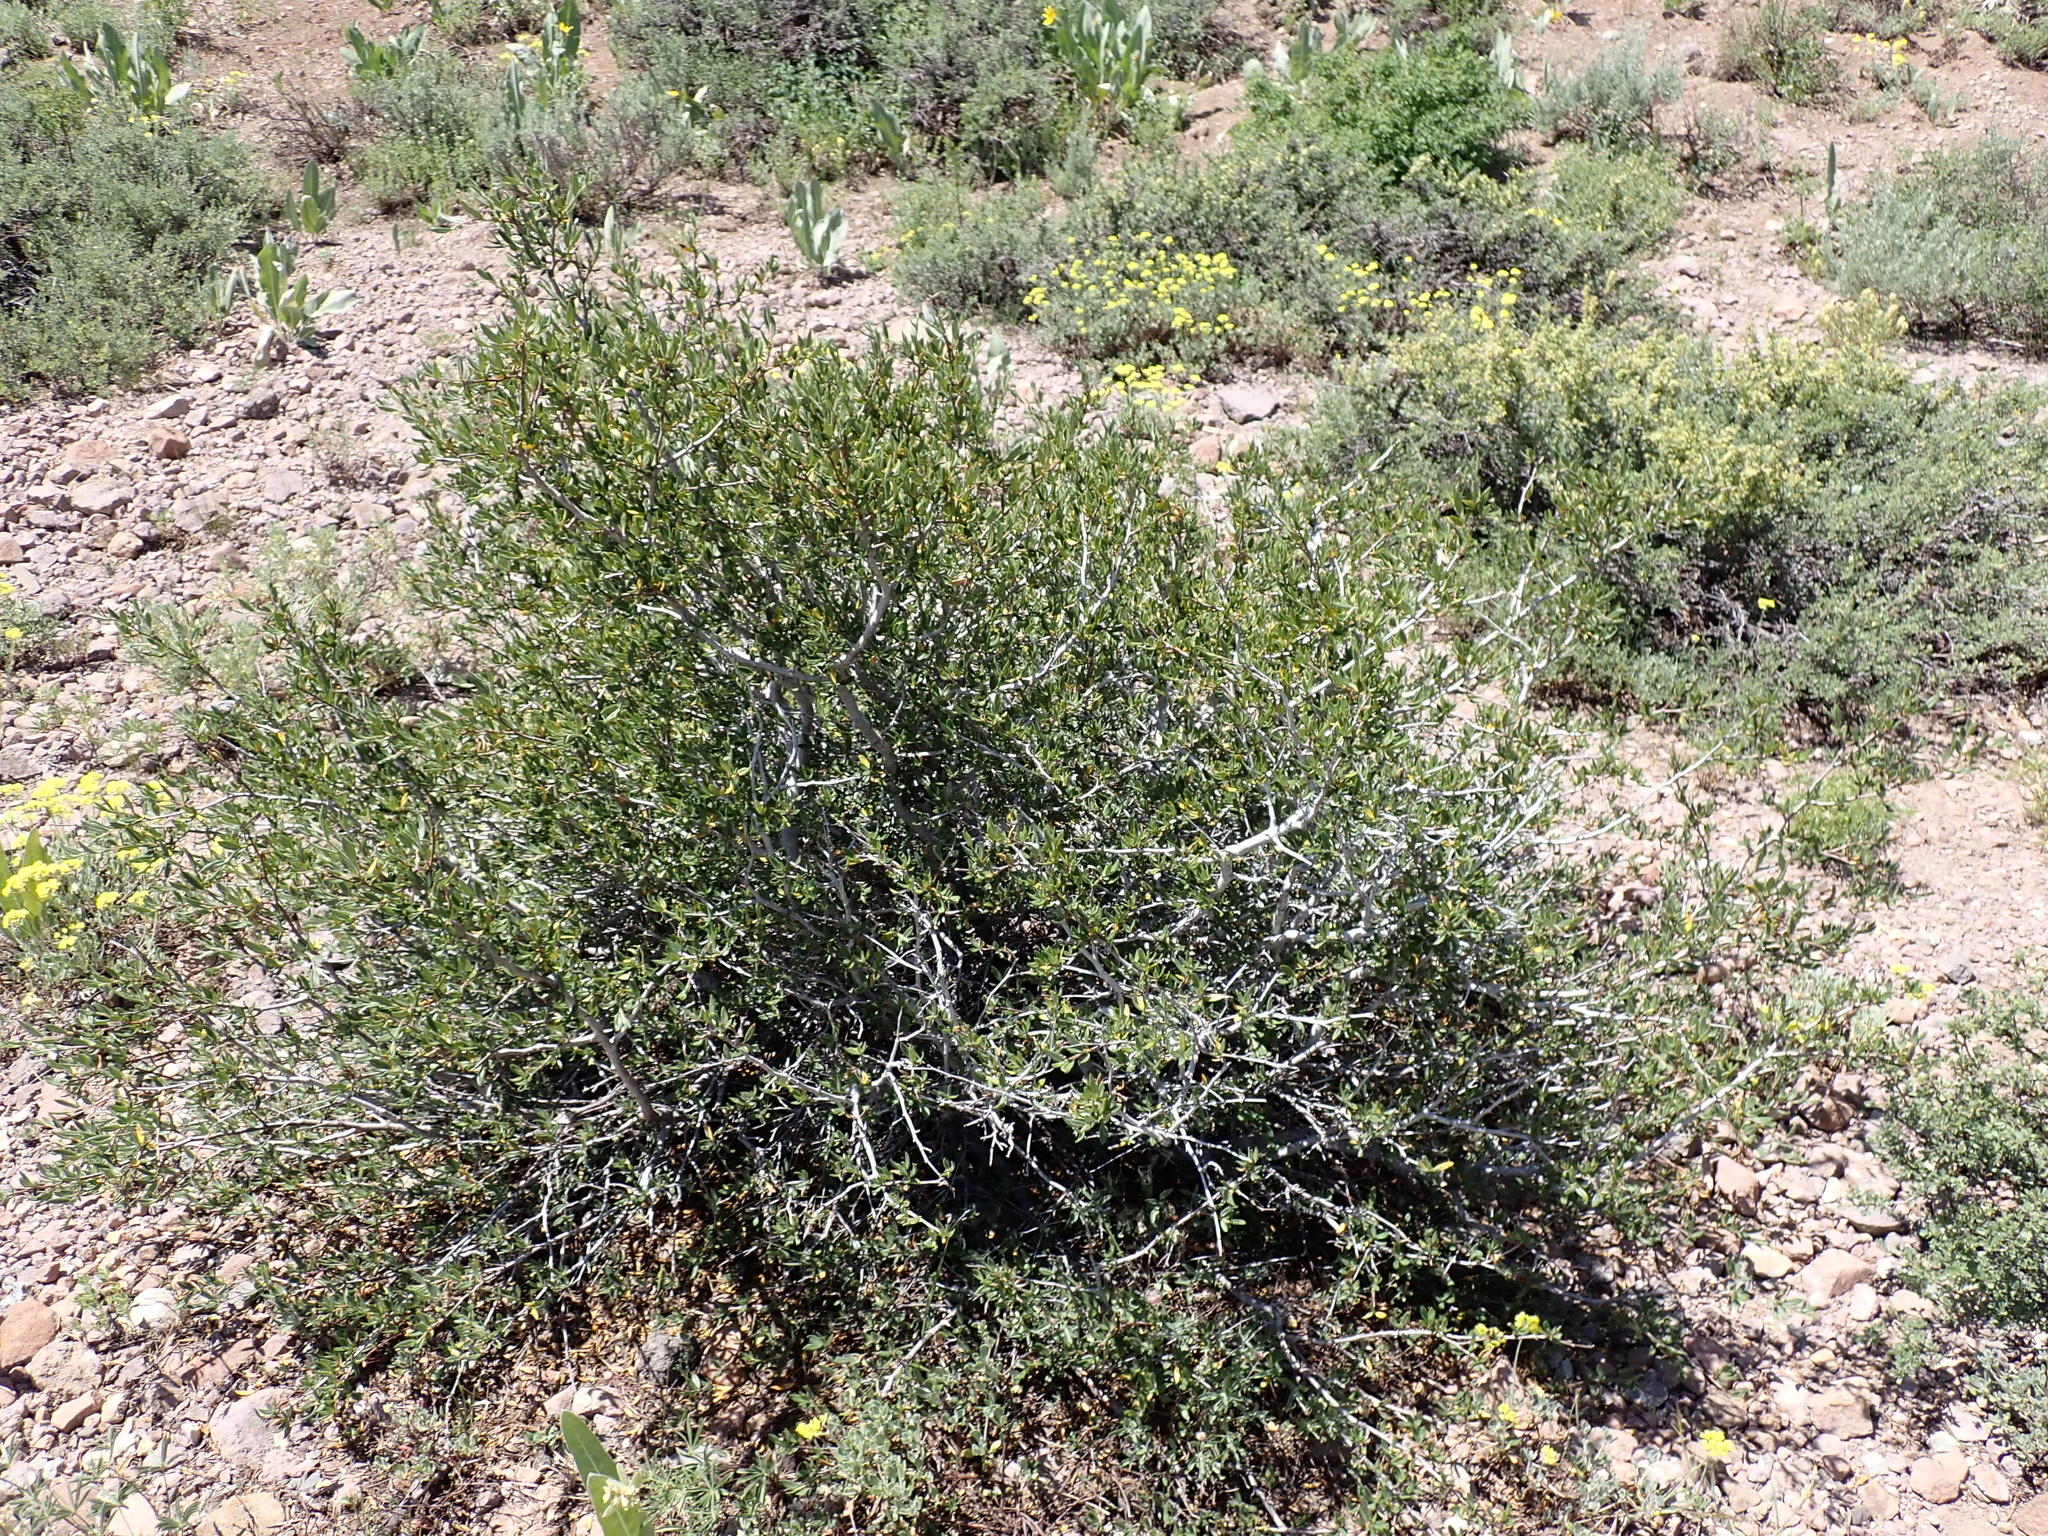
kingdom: Plantae
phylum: Tracheophyta
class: Magnoliopsida
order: Rosales
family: Rosaceae
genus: Cercocarpus
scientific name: Cercocarpus ledifolius
